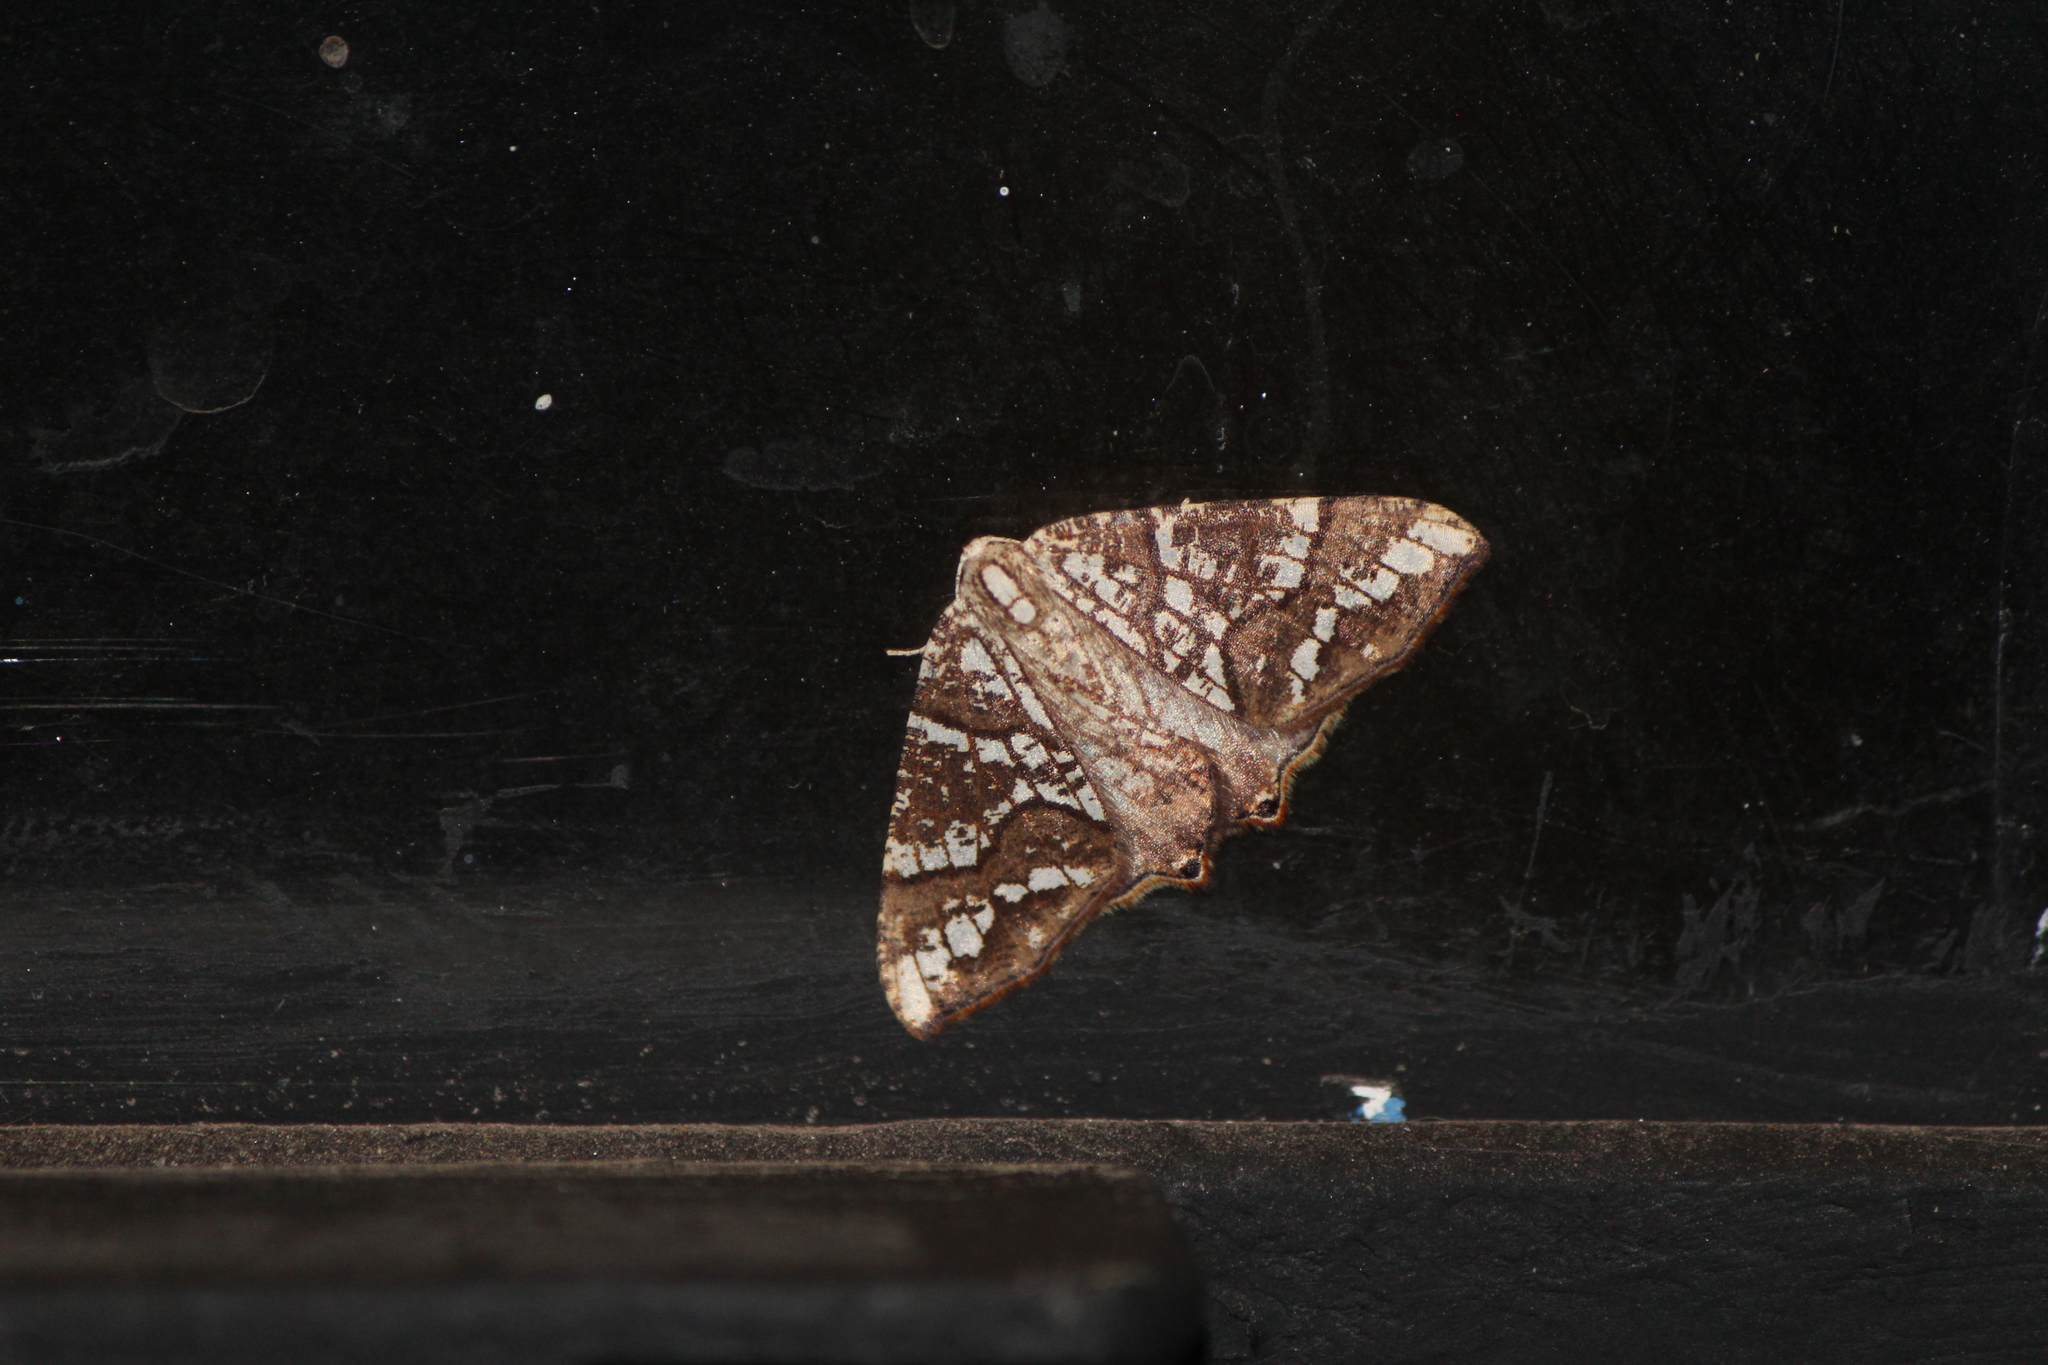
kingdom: Animalia
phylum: Arthropoda
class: Insecta
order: Lepidoptera
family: Geometridae
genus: Rindgeria
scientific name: Rindgeria ornata
